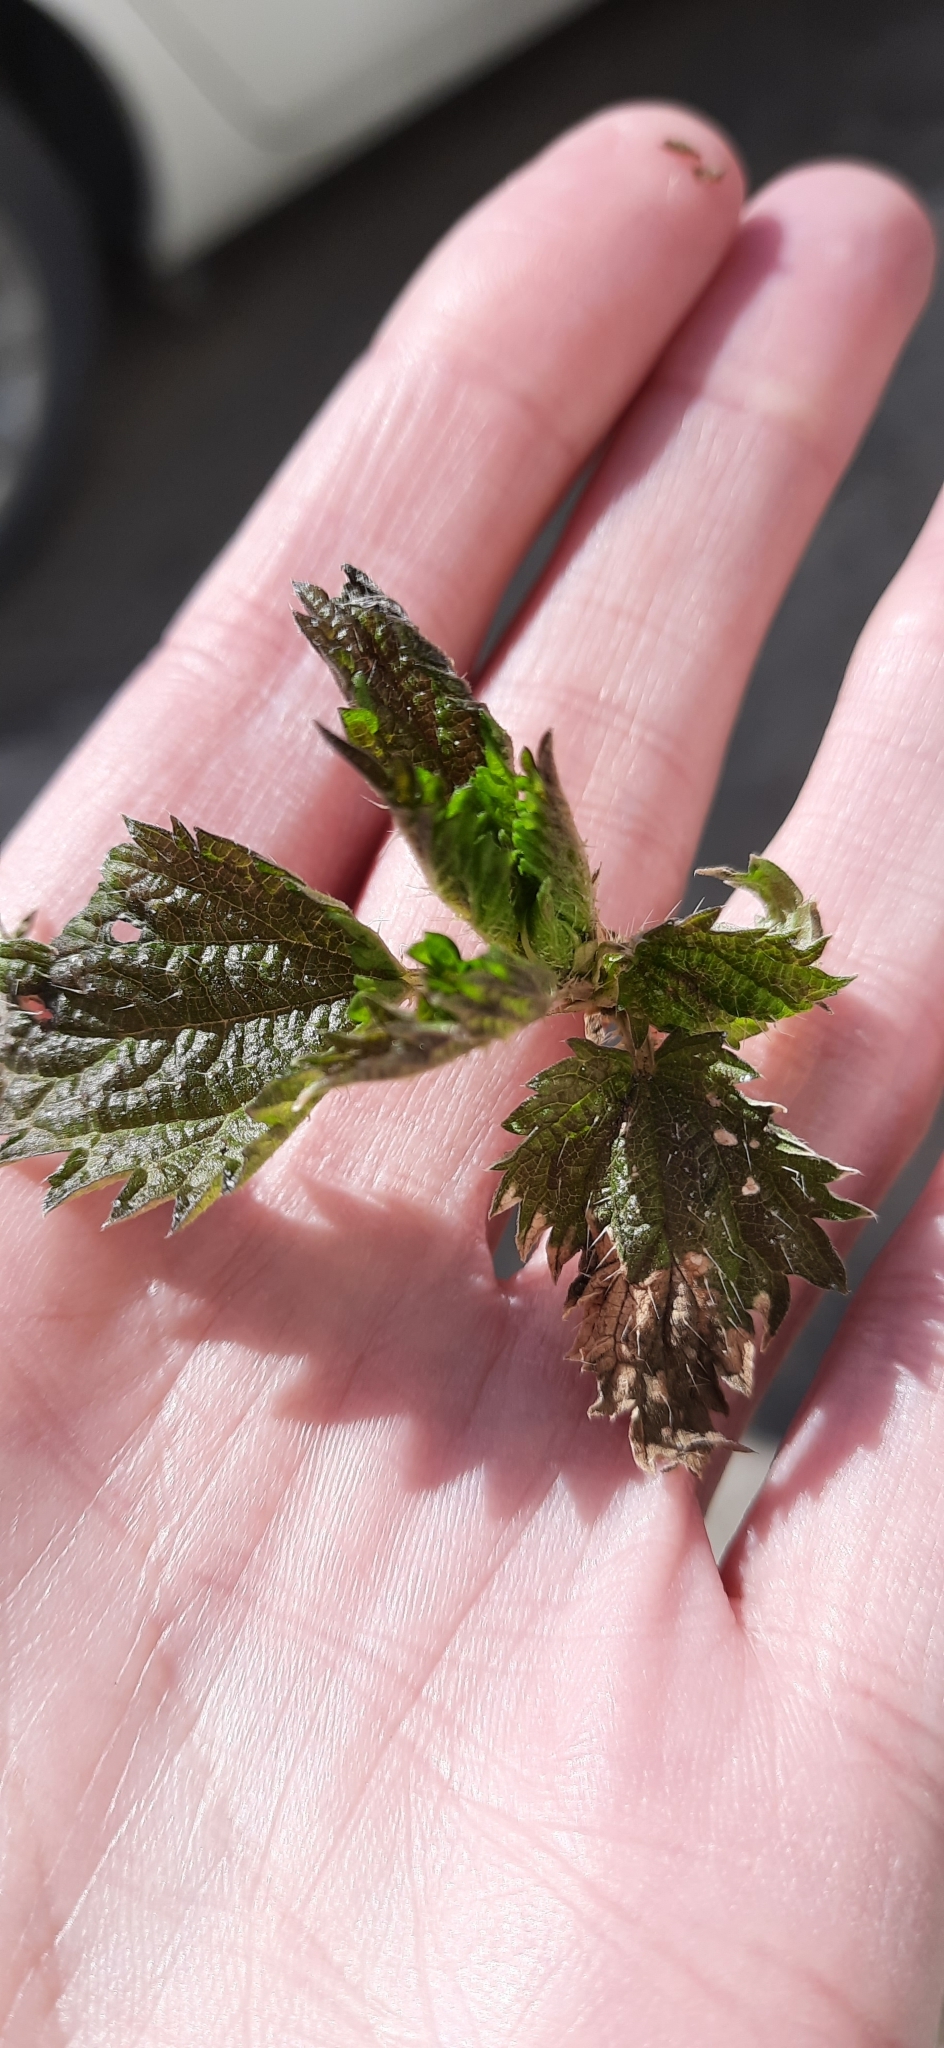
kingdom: Plantae
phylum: Tracheophyta
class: Magnoliopsida
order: Rosales
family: Urticaceae
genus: Urtica
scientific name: Urtica dioica
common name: Common nettle
